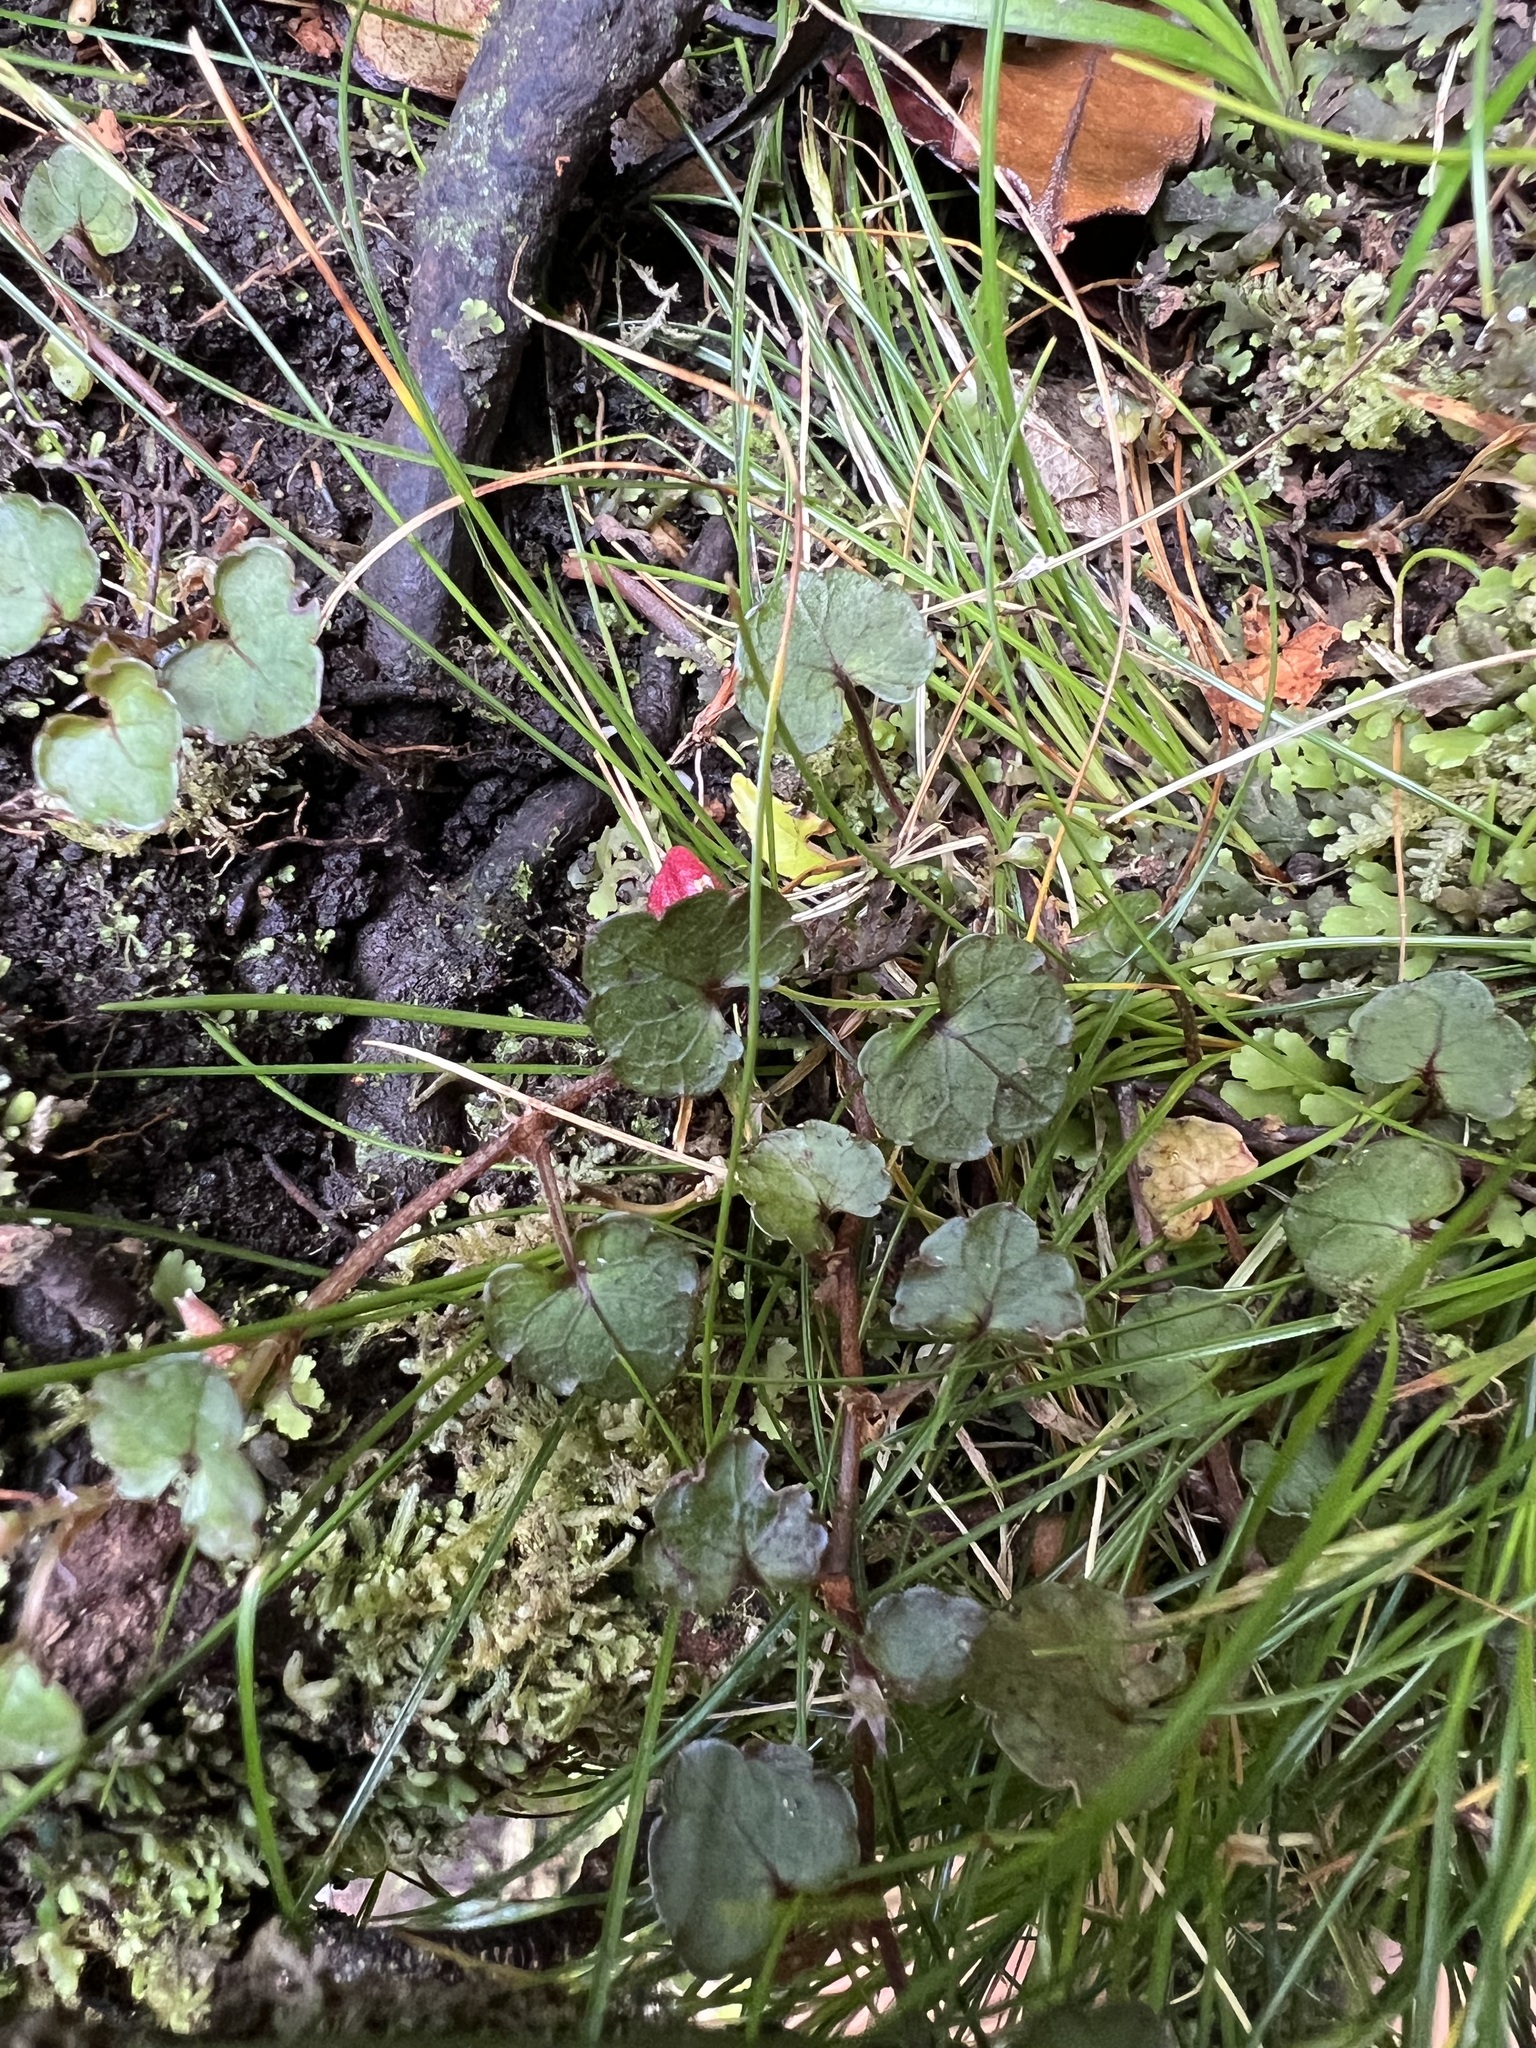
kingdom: Plantae
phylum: Tracheophyta
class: Magnoliopsida
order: Malpighiales
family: Violaceae
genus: Viola
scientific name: Viola filicaulis
